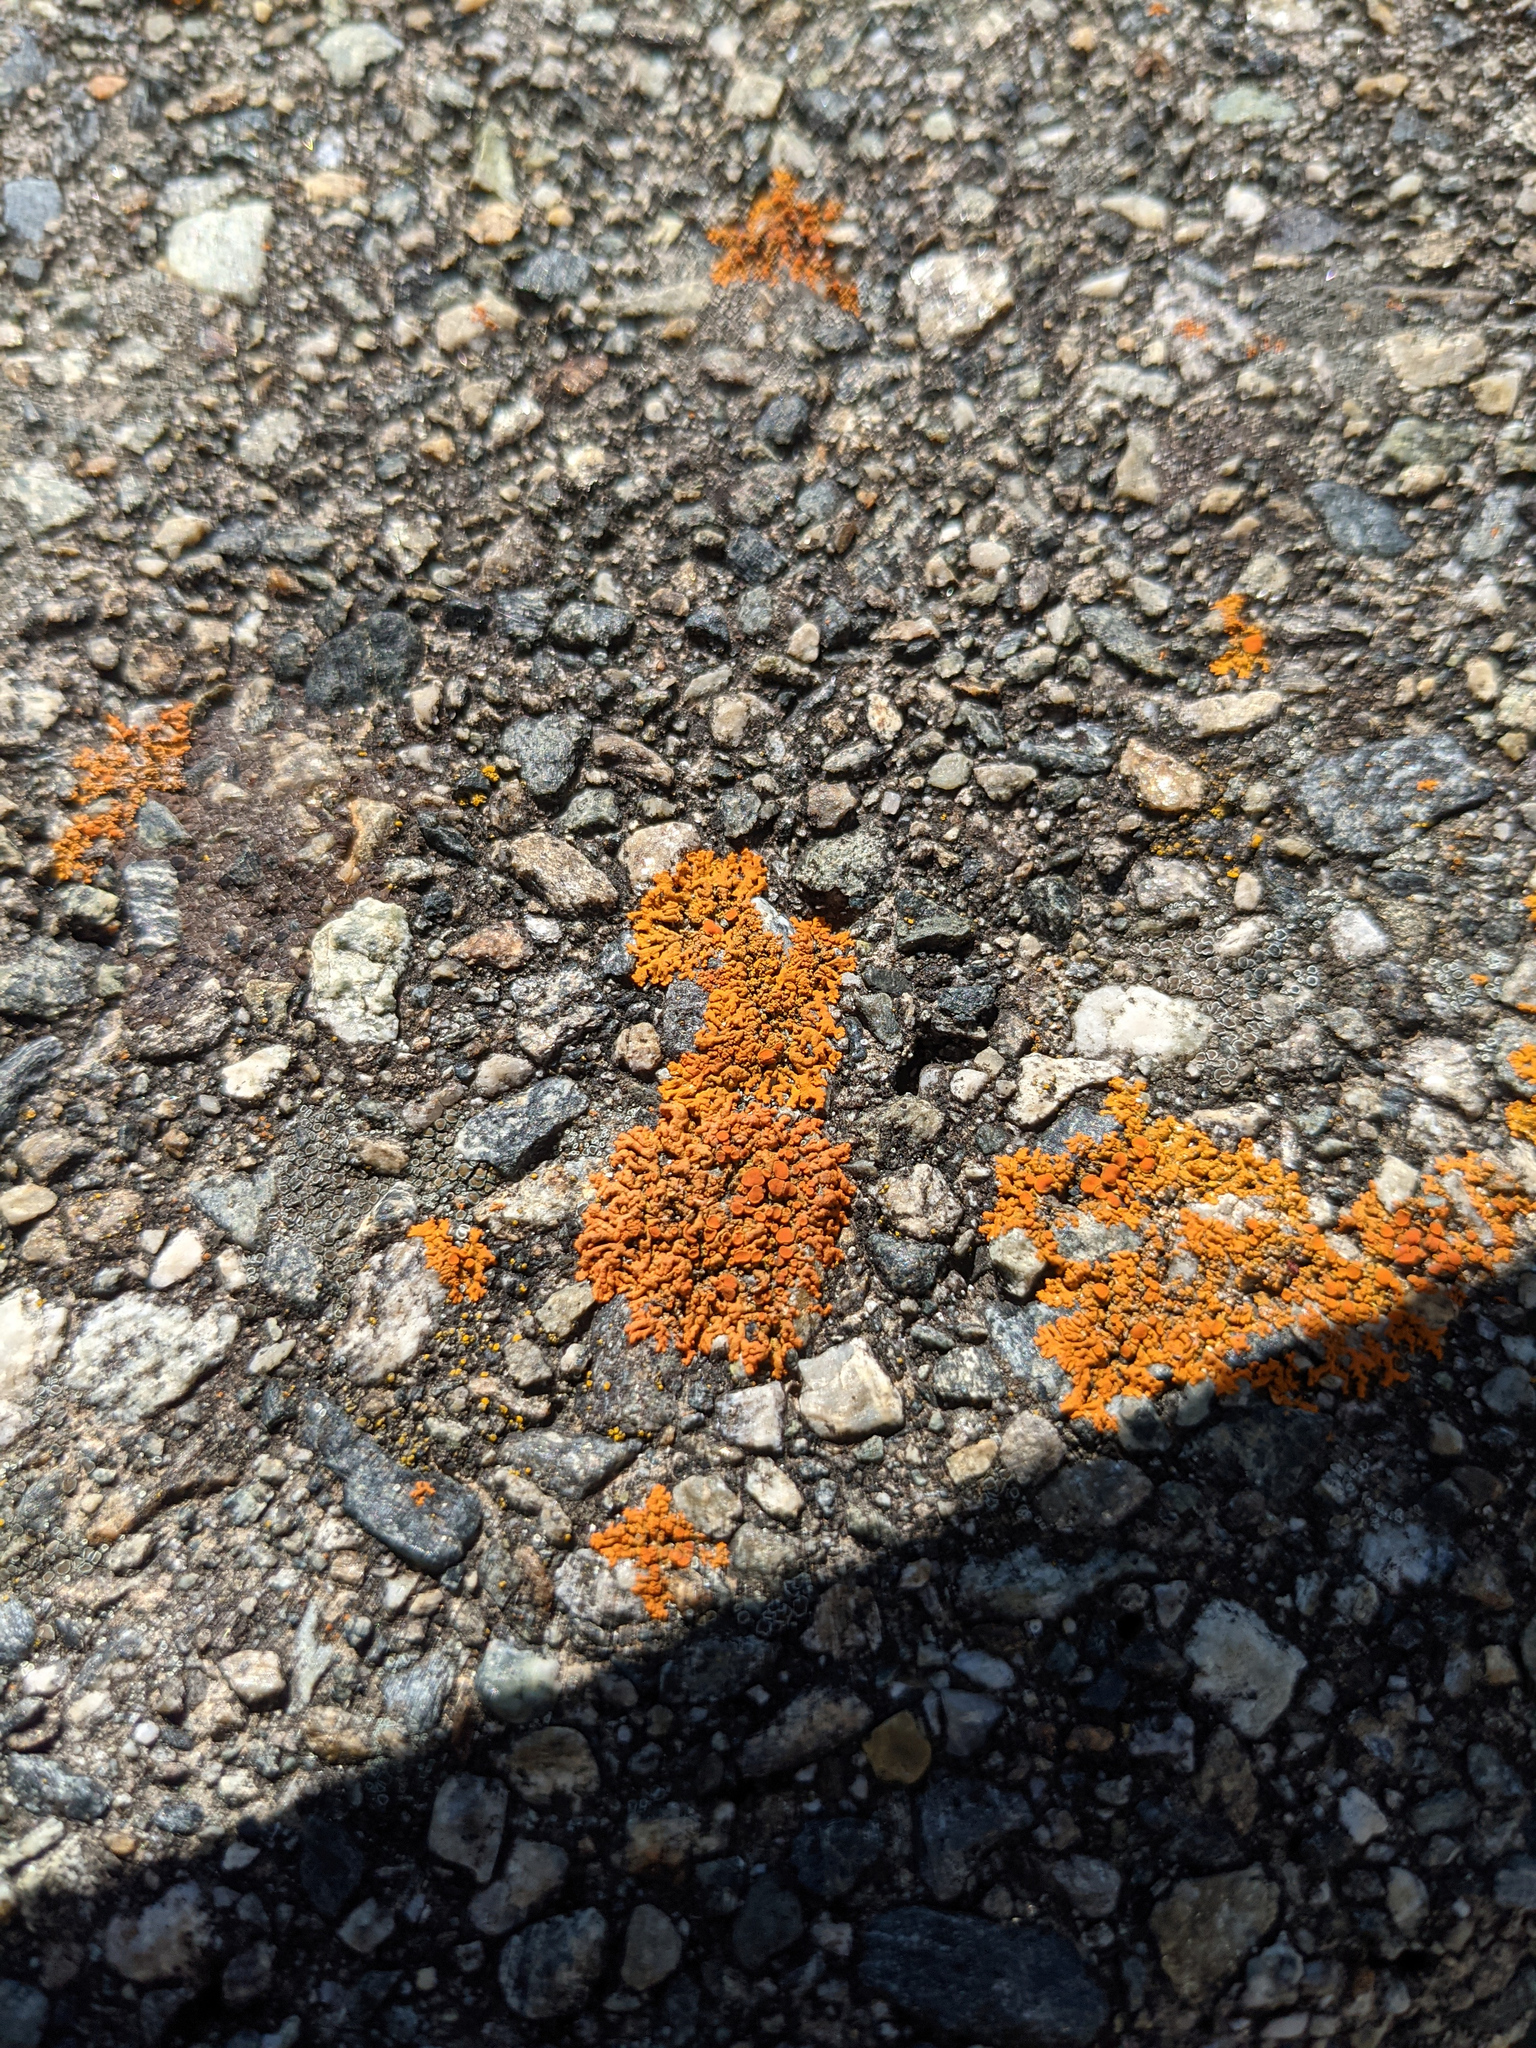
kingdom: Fungi
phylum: Ascomycota
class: Lecanoromycetes
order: Teloschistales
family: Teloschistaceae
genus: Xanthoria
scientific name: Xanthoria elegans
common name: Elegant sunburst lichen
